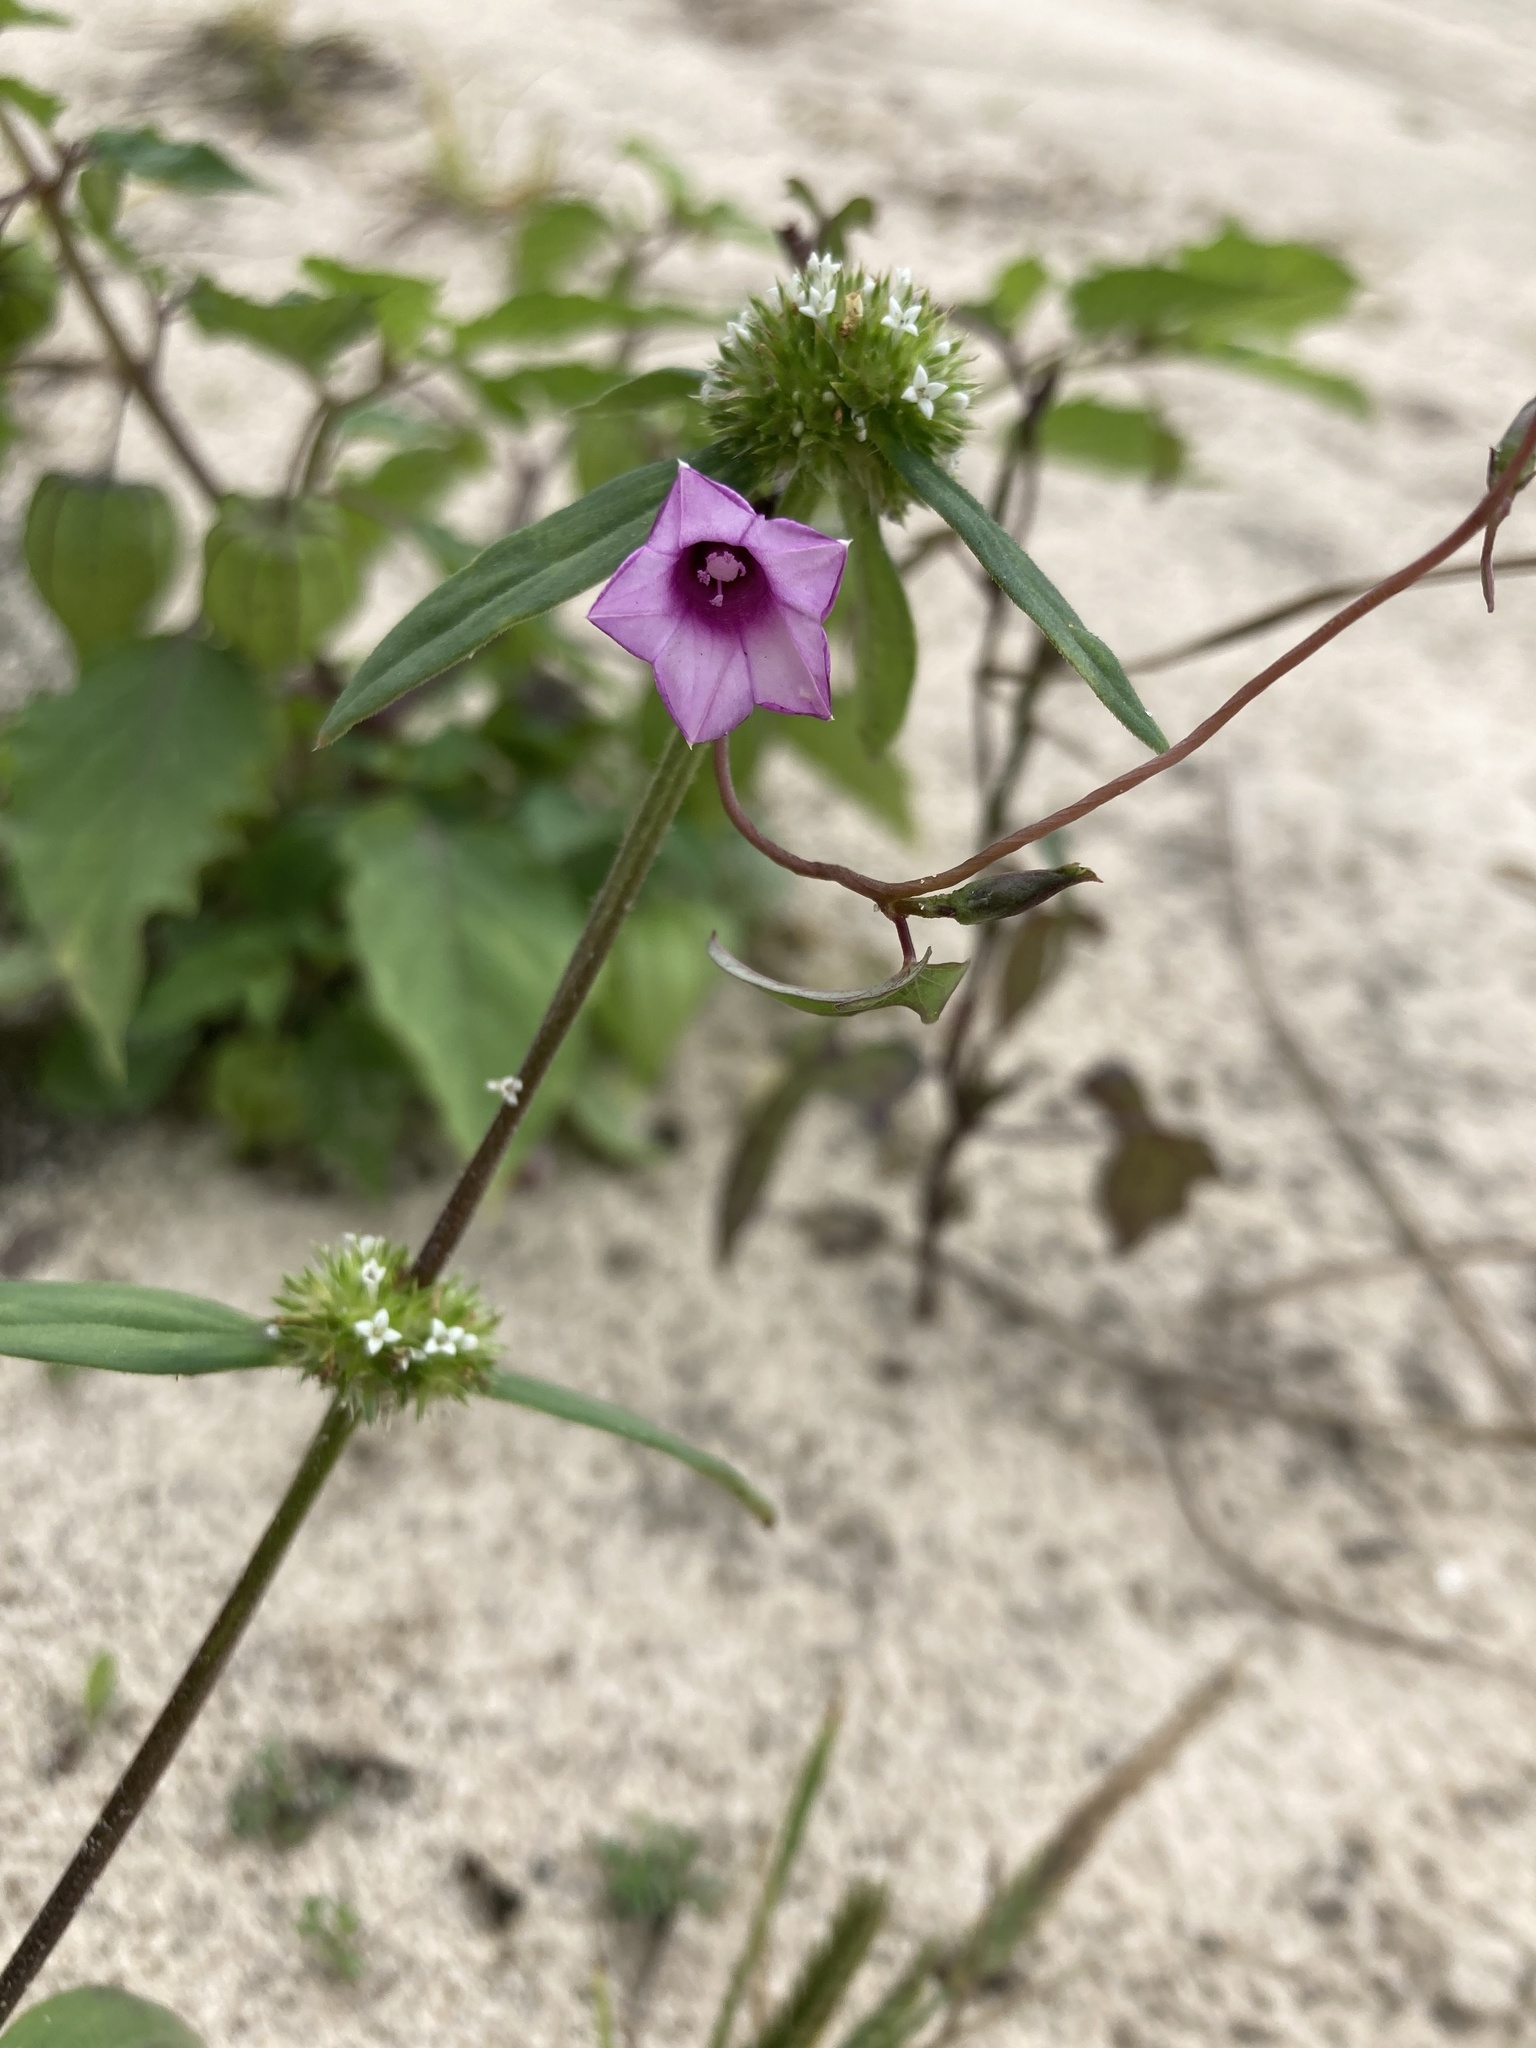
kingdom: Plantae
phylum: Tracheophyta
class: Magnoliopsida
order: Solanales
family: Convolvulaceae
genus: Ipomoea
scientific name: Ipomoea triloba
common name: Little-bell
